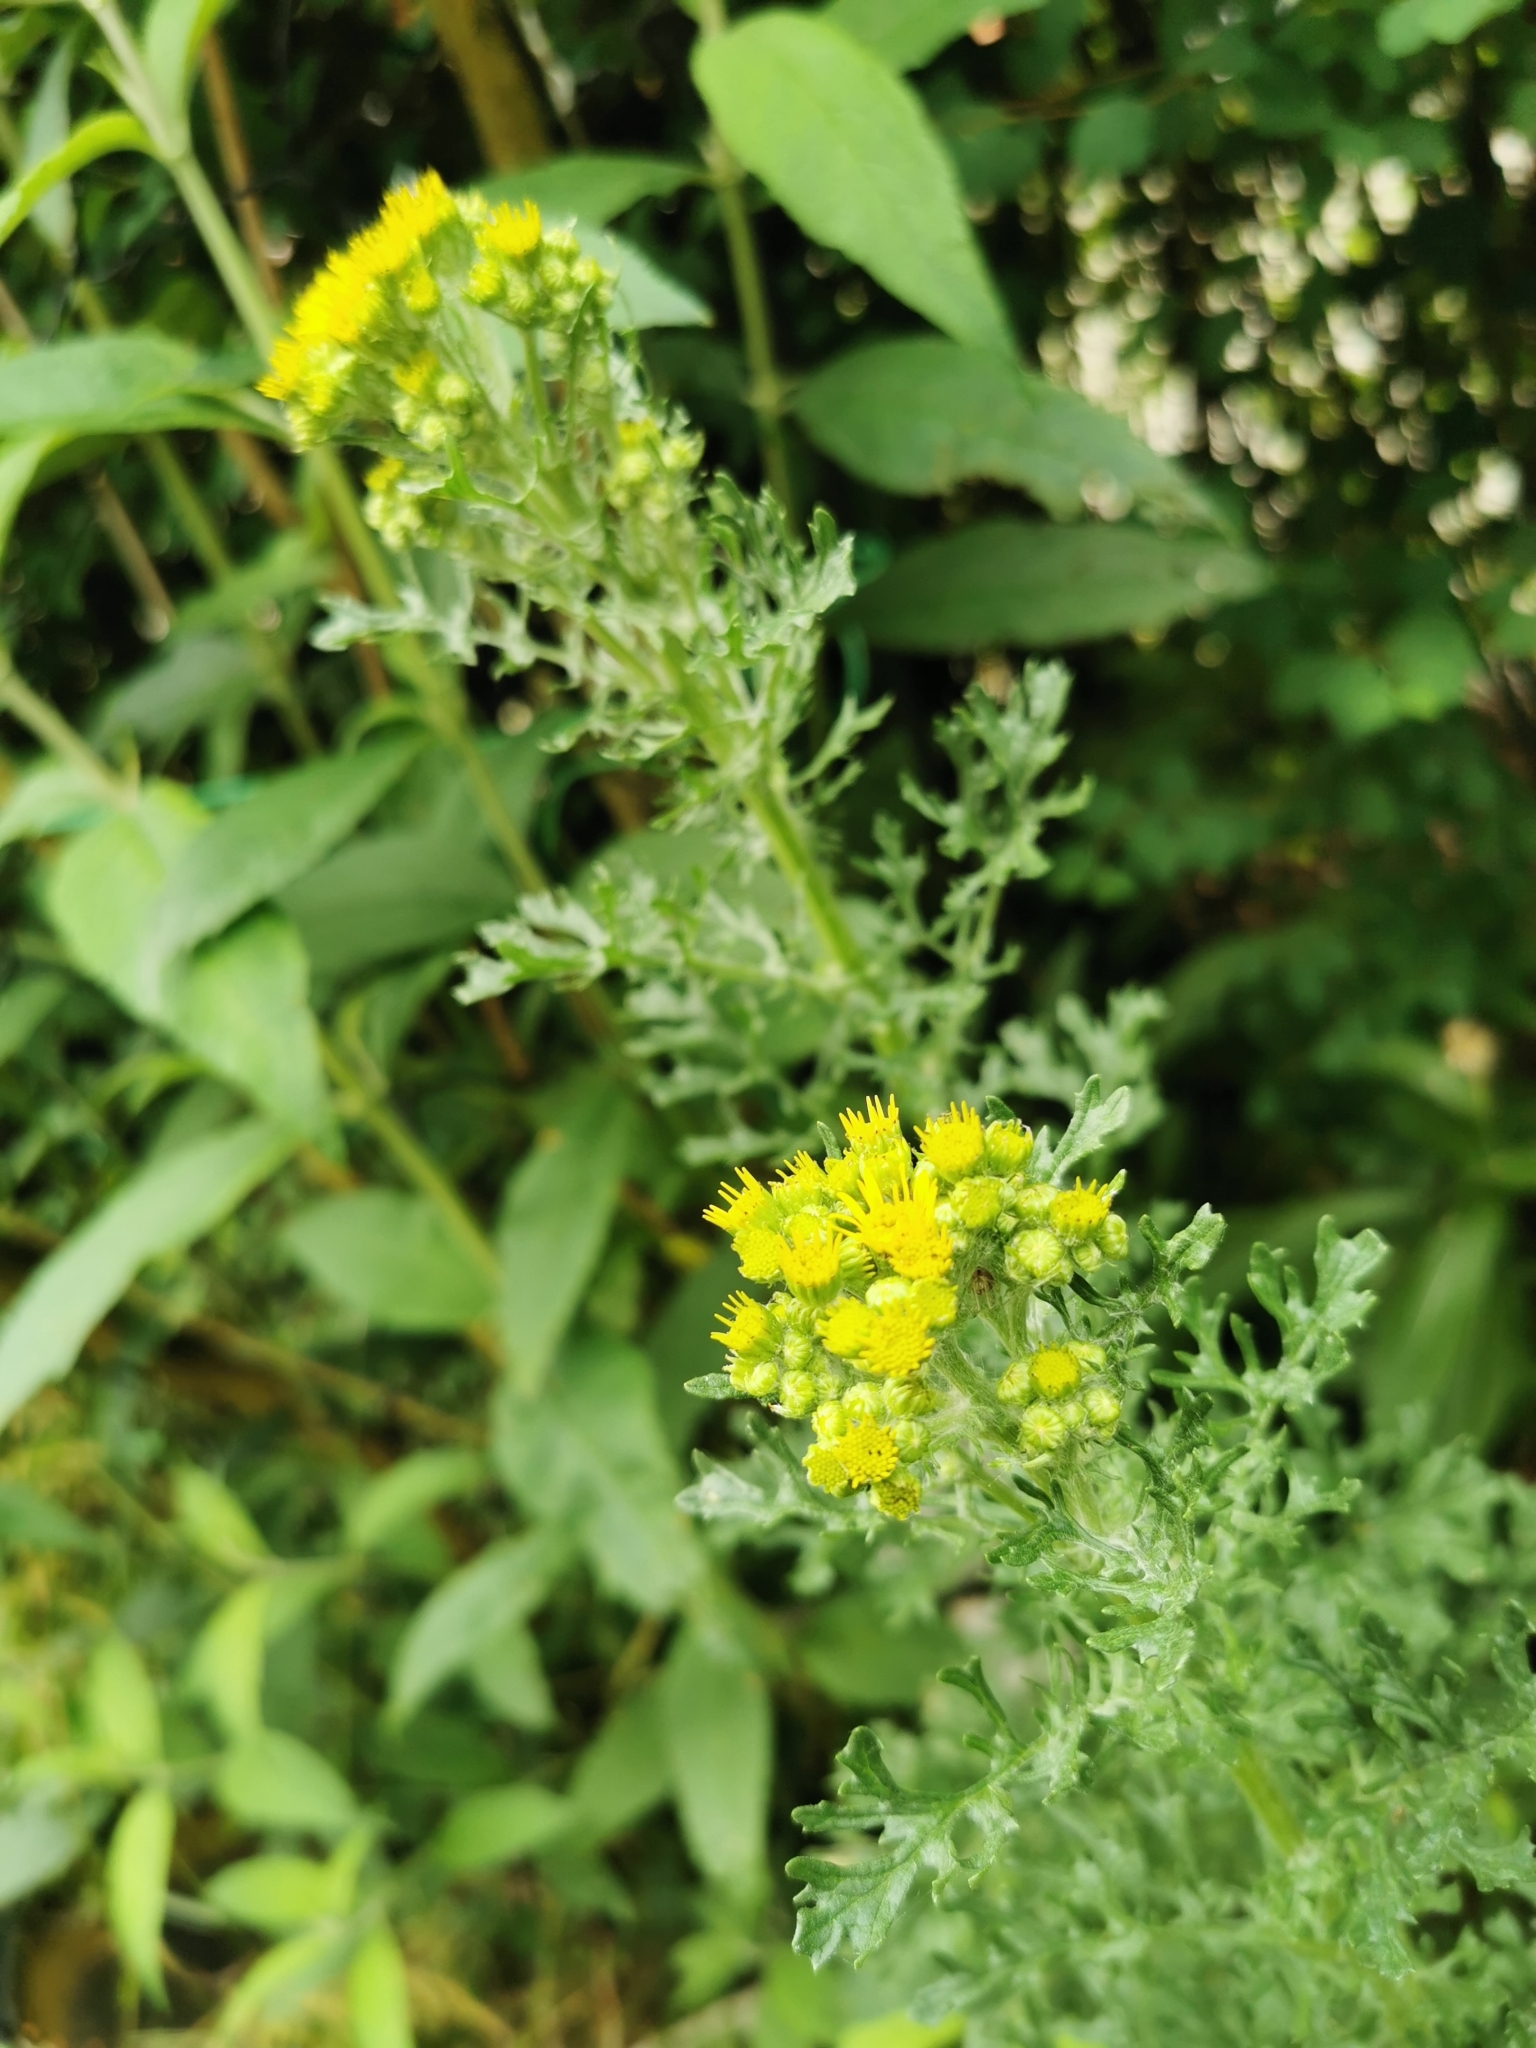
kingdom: Plantae
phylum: Tracheophyta
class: Magnoliopsida
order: Asterales
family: Asteraceae
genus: Jacobaea
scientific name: Jacobaea vulgaris
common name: Stinking willie
